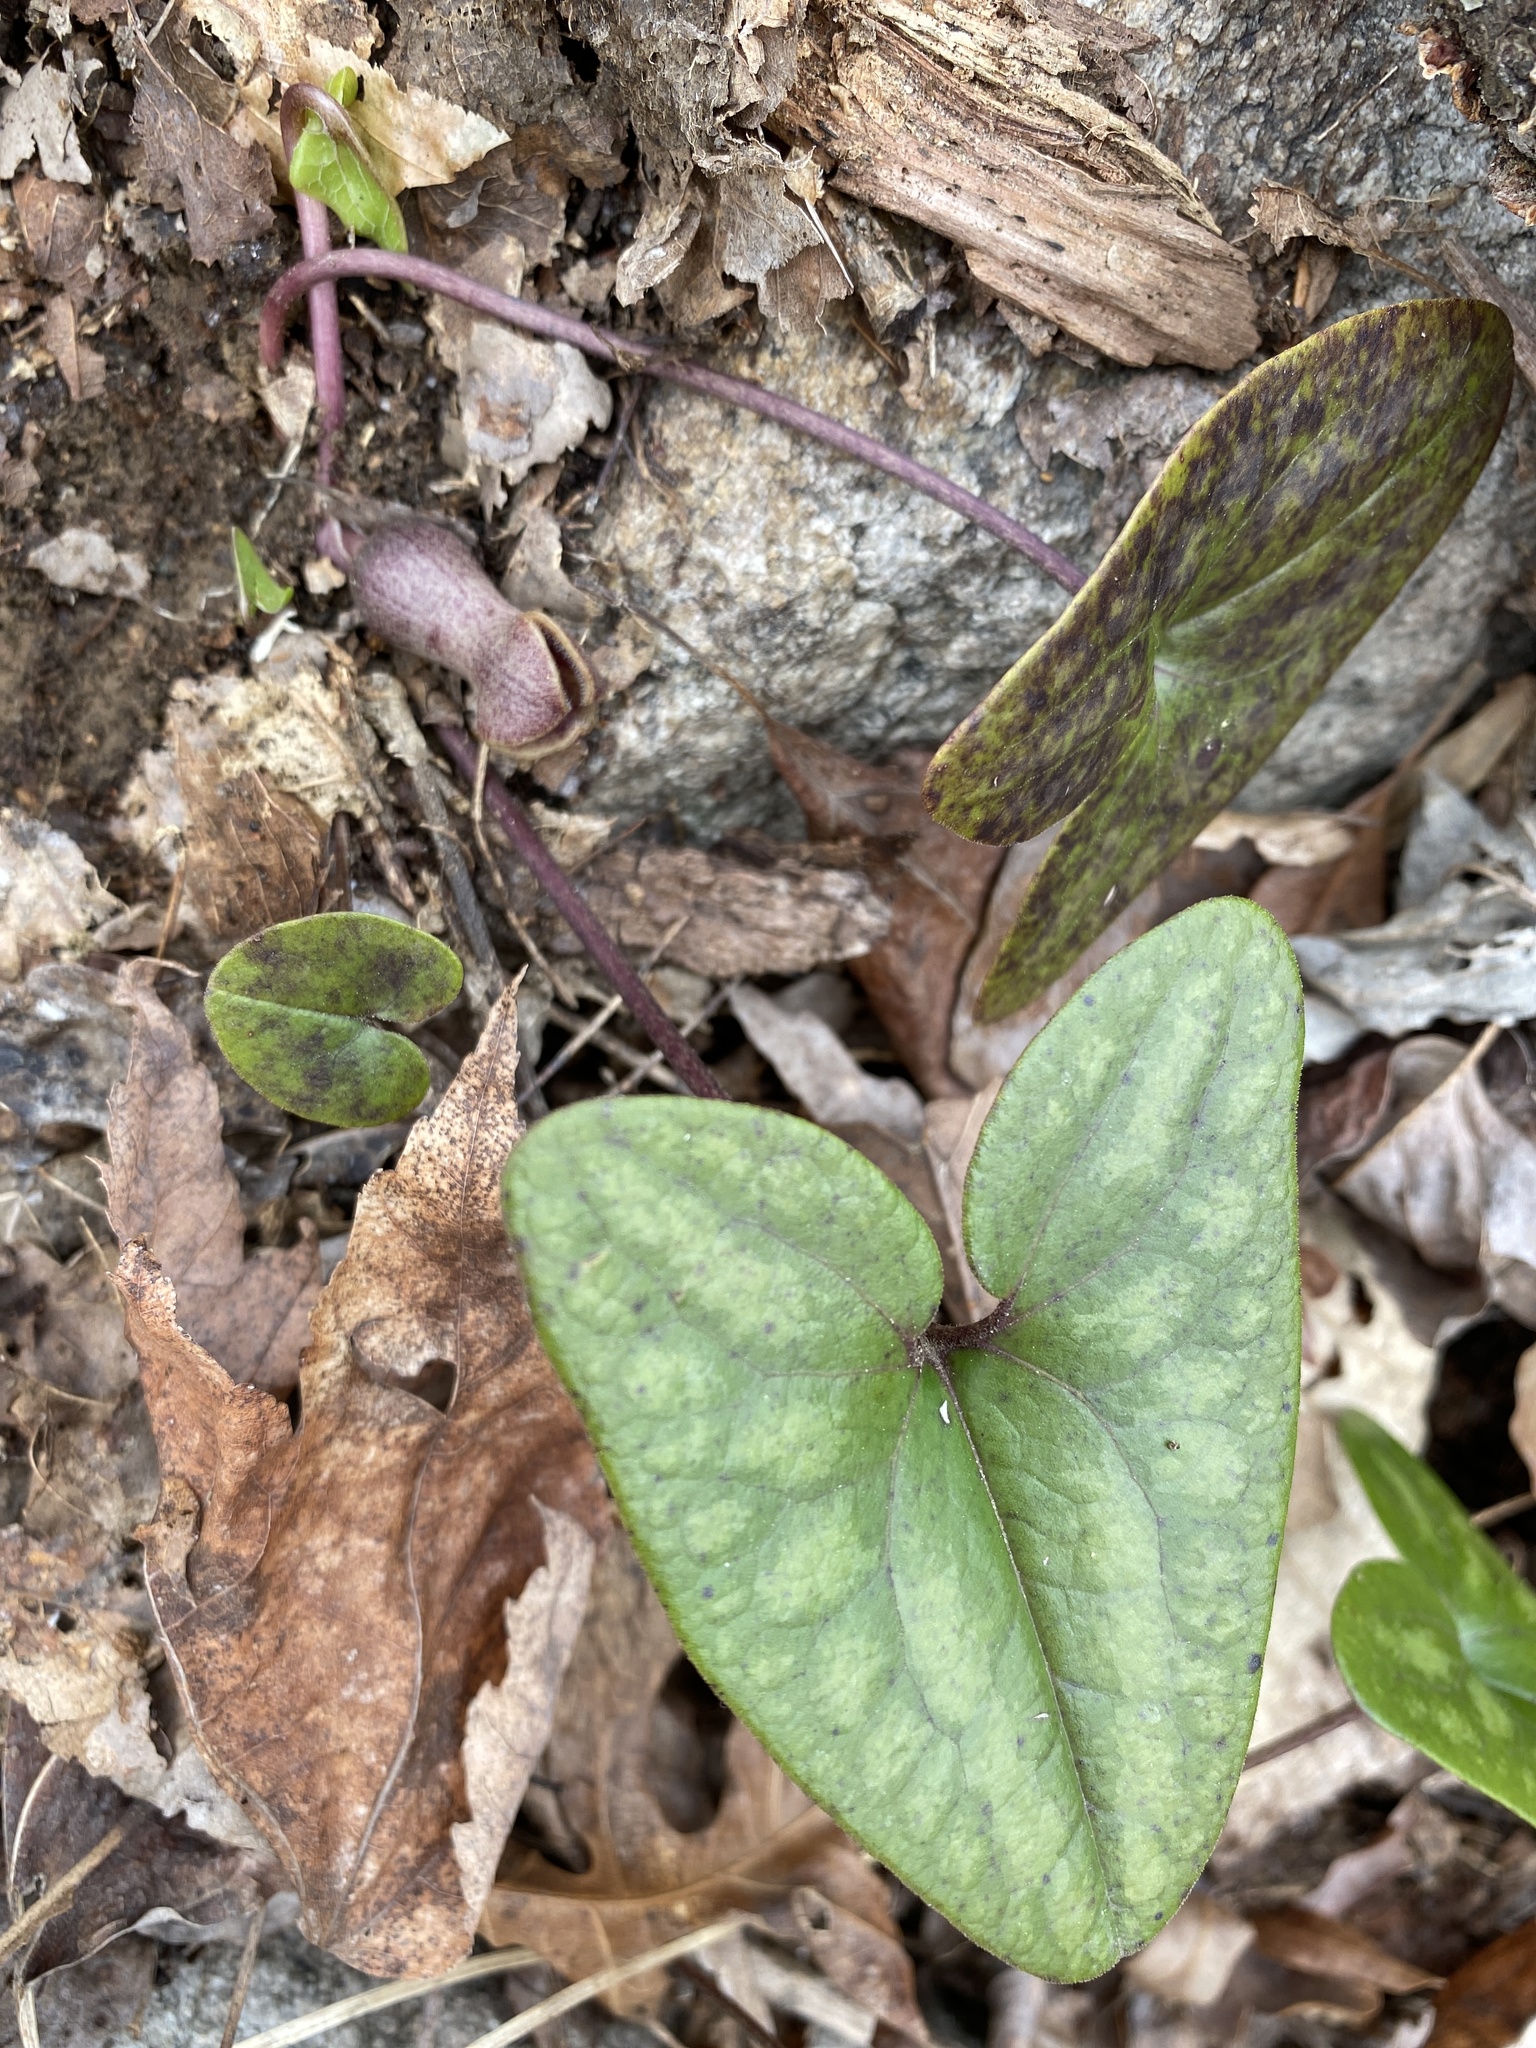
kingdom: Plantae
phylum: Tracheophyta
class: Magnoliopsida
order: Piperales
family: Aristolochiaceae
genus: Hexastylis
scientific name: Hexastylis arifolia
